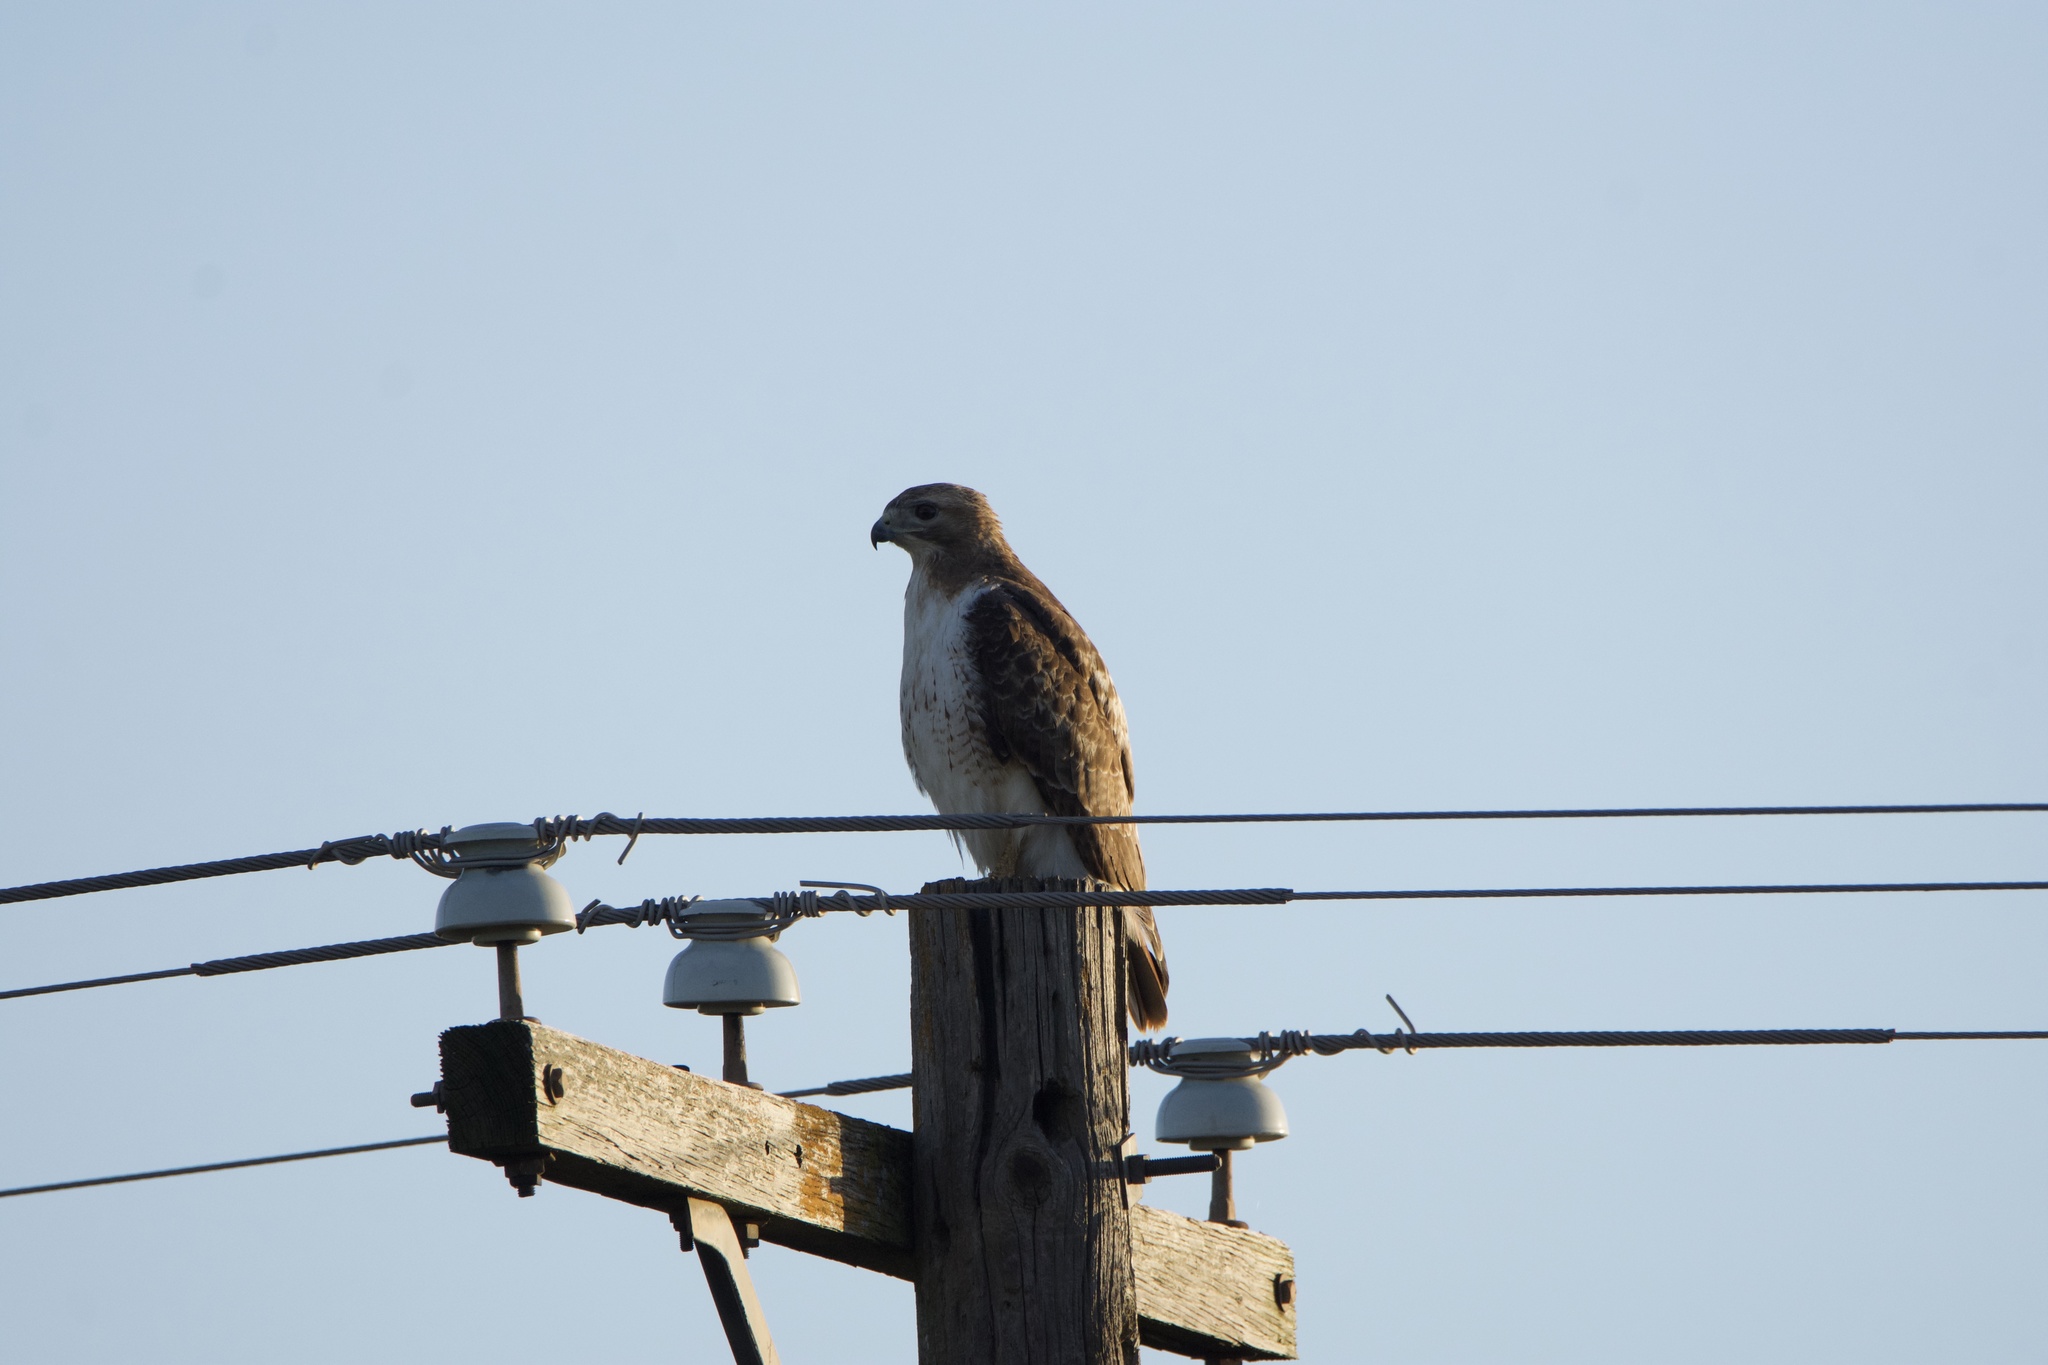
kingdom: Animalia
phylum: Chordata
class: Aves
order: Accipitriformes
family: Accipitridae
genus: Buteo
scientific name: Buteo jamaicensis
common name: Red-tailed hawk
